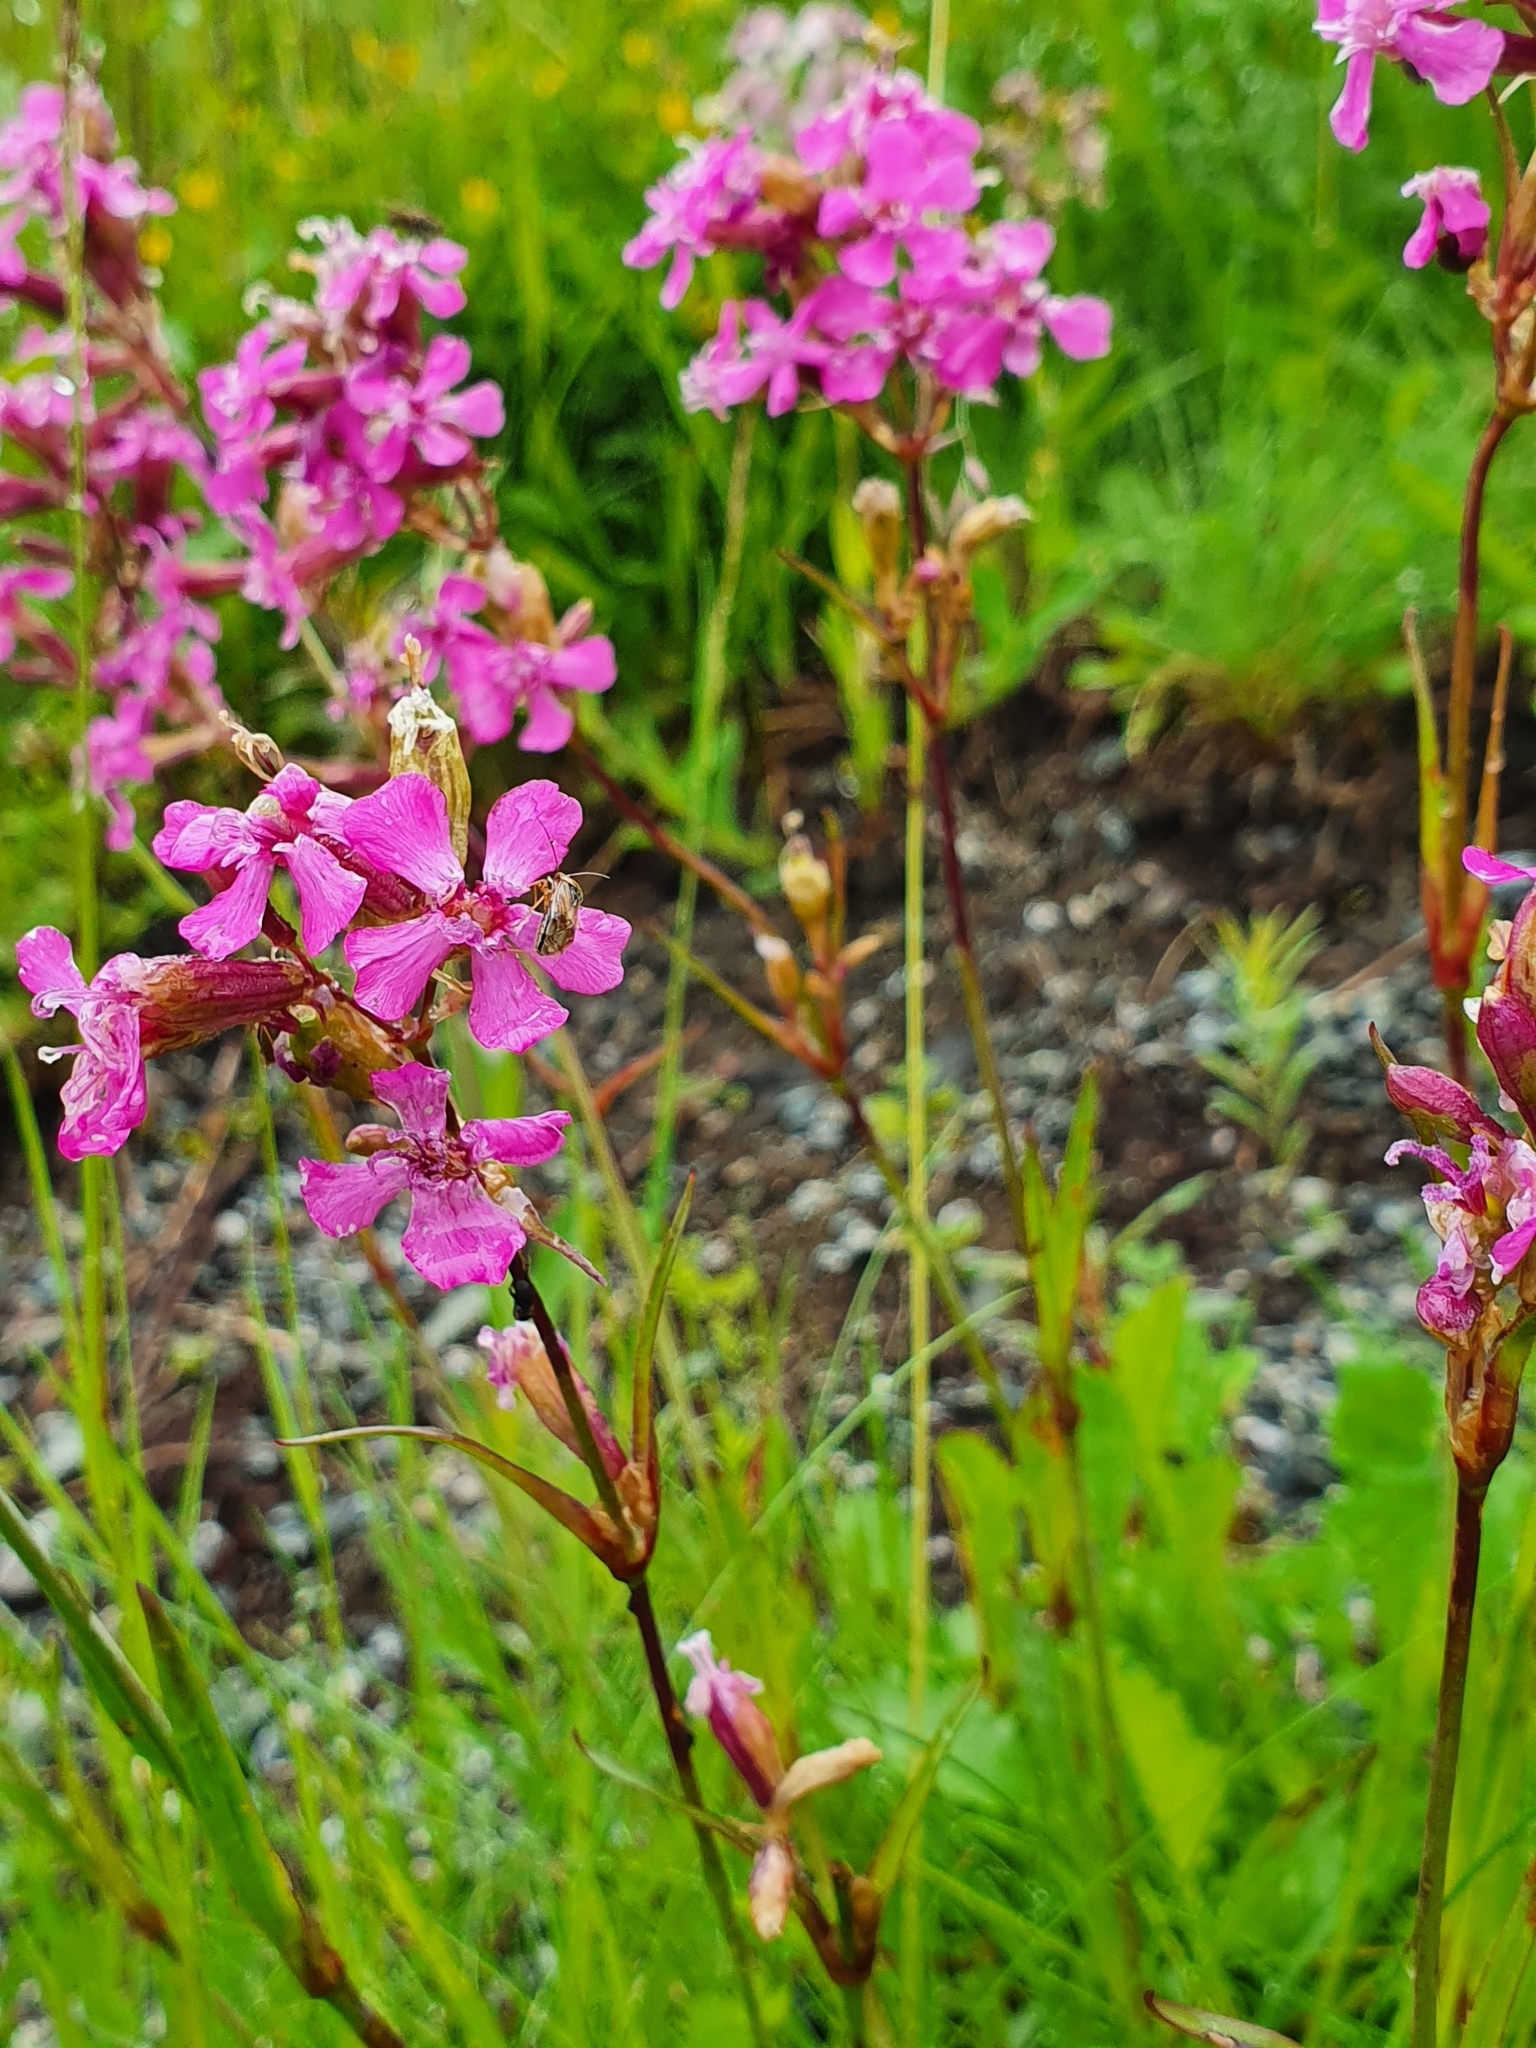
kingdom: Plantae
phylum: Tracheophyta
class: Magnoliopsida
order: Caryophyllales
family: Caryophyllaceae
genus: Viscaria
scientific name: Viscaria vulgaris
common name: Clammy campion
